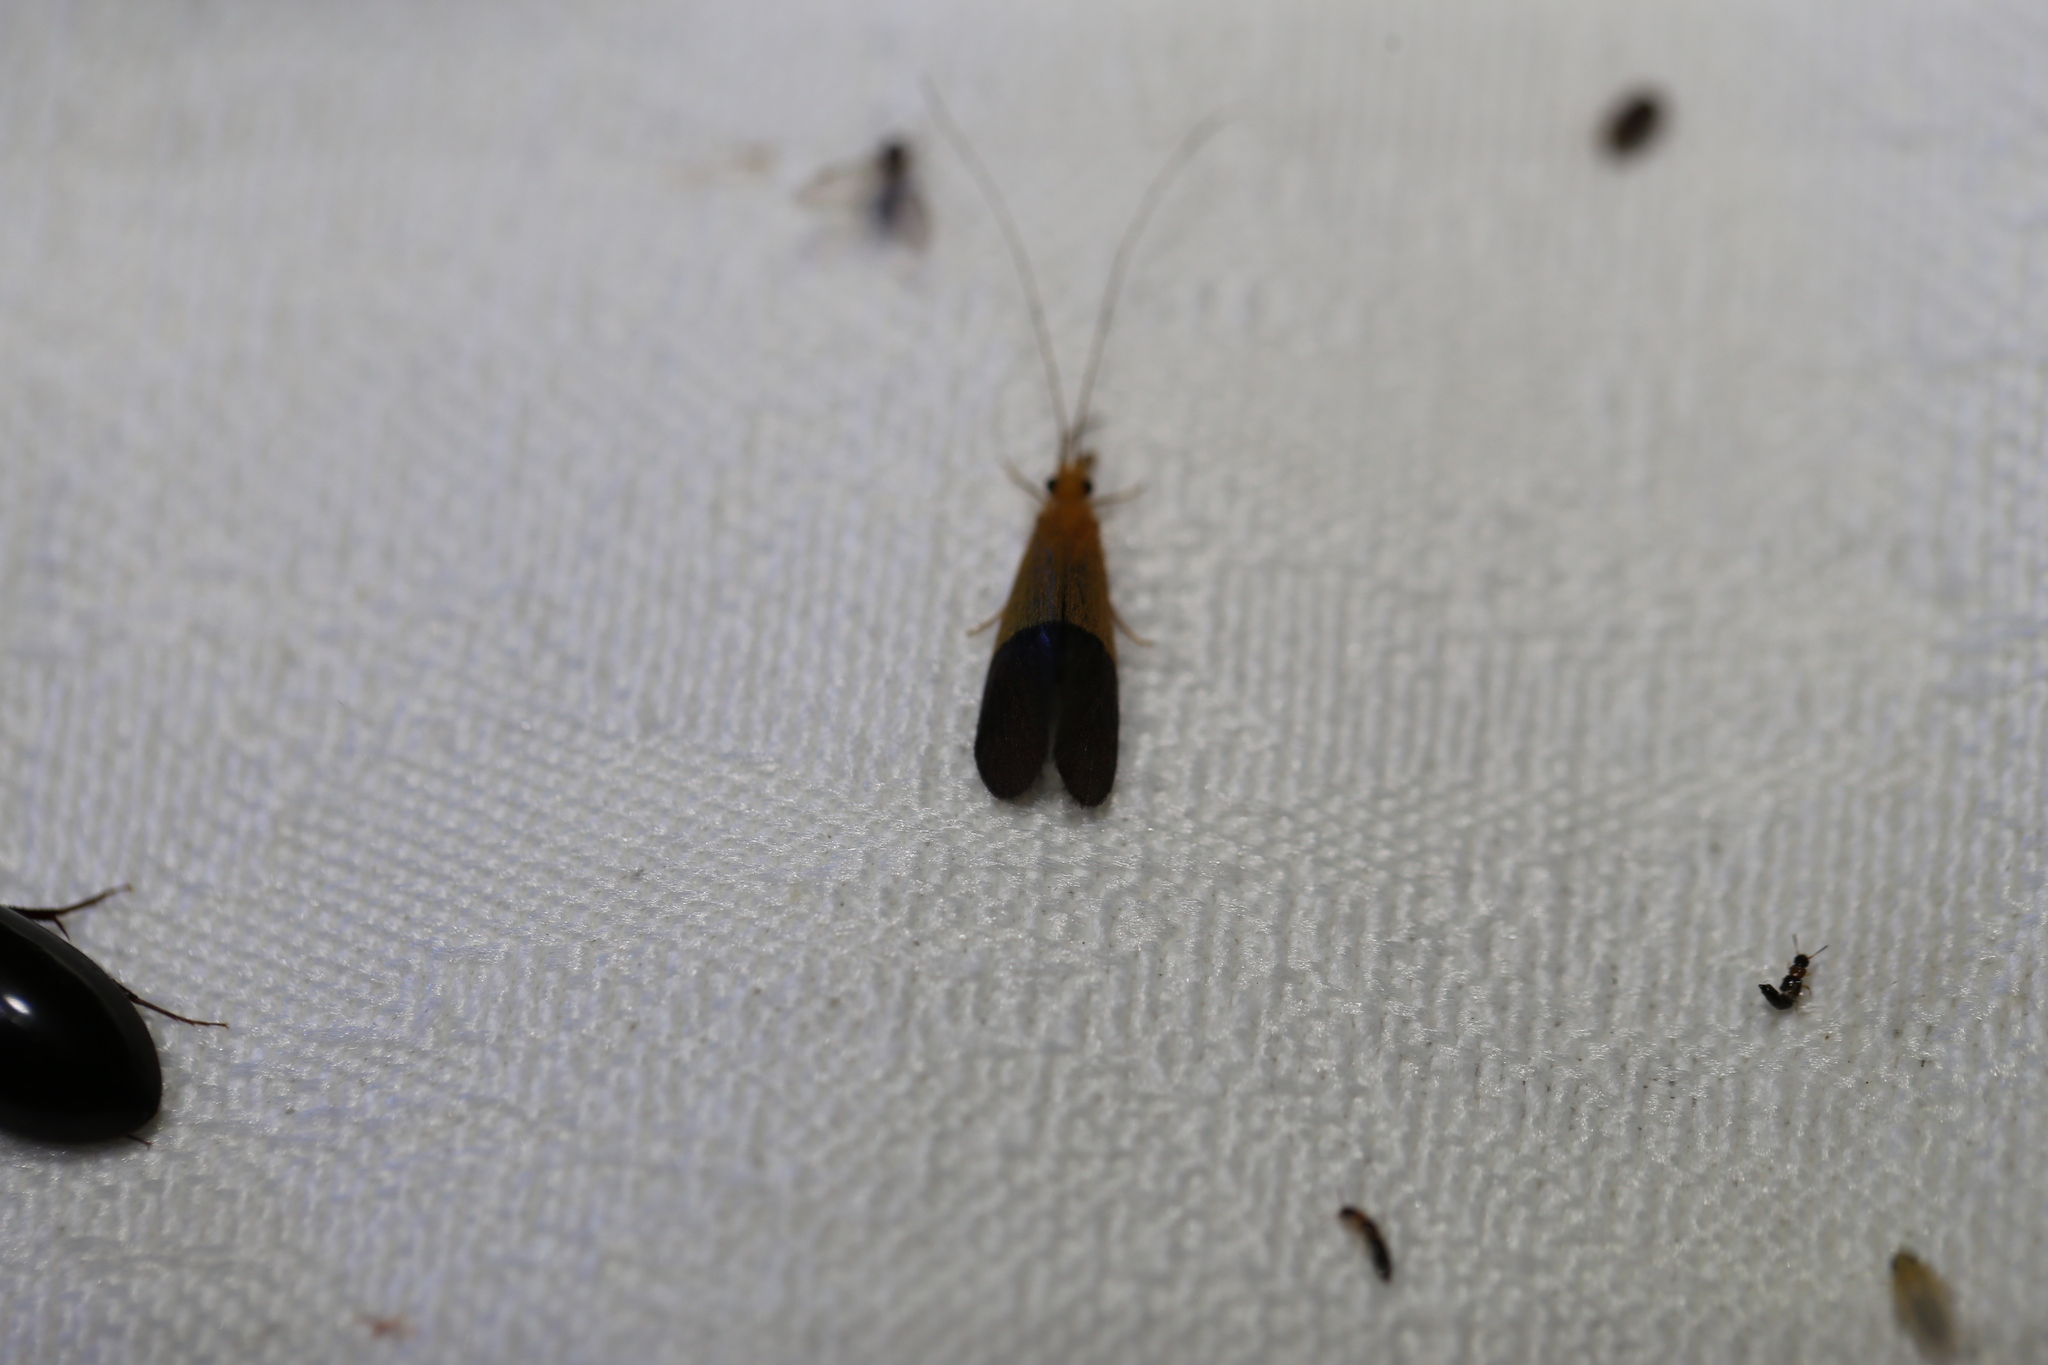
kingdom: Animalia
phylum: Arthropoda
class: Insecta
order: Trichoptera
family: Calamoceratidae
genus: Anisocentropus
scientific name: Anisocentropus bicoloratus
